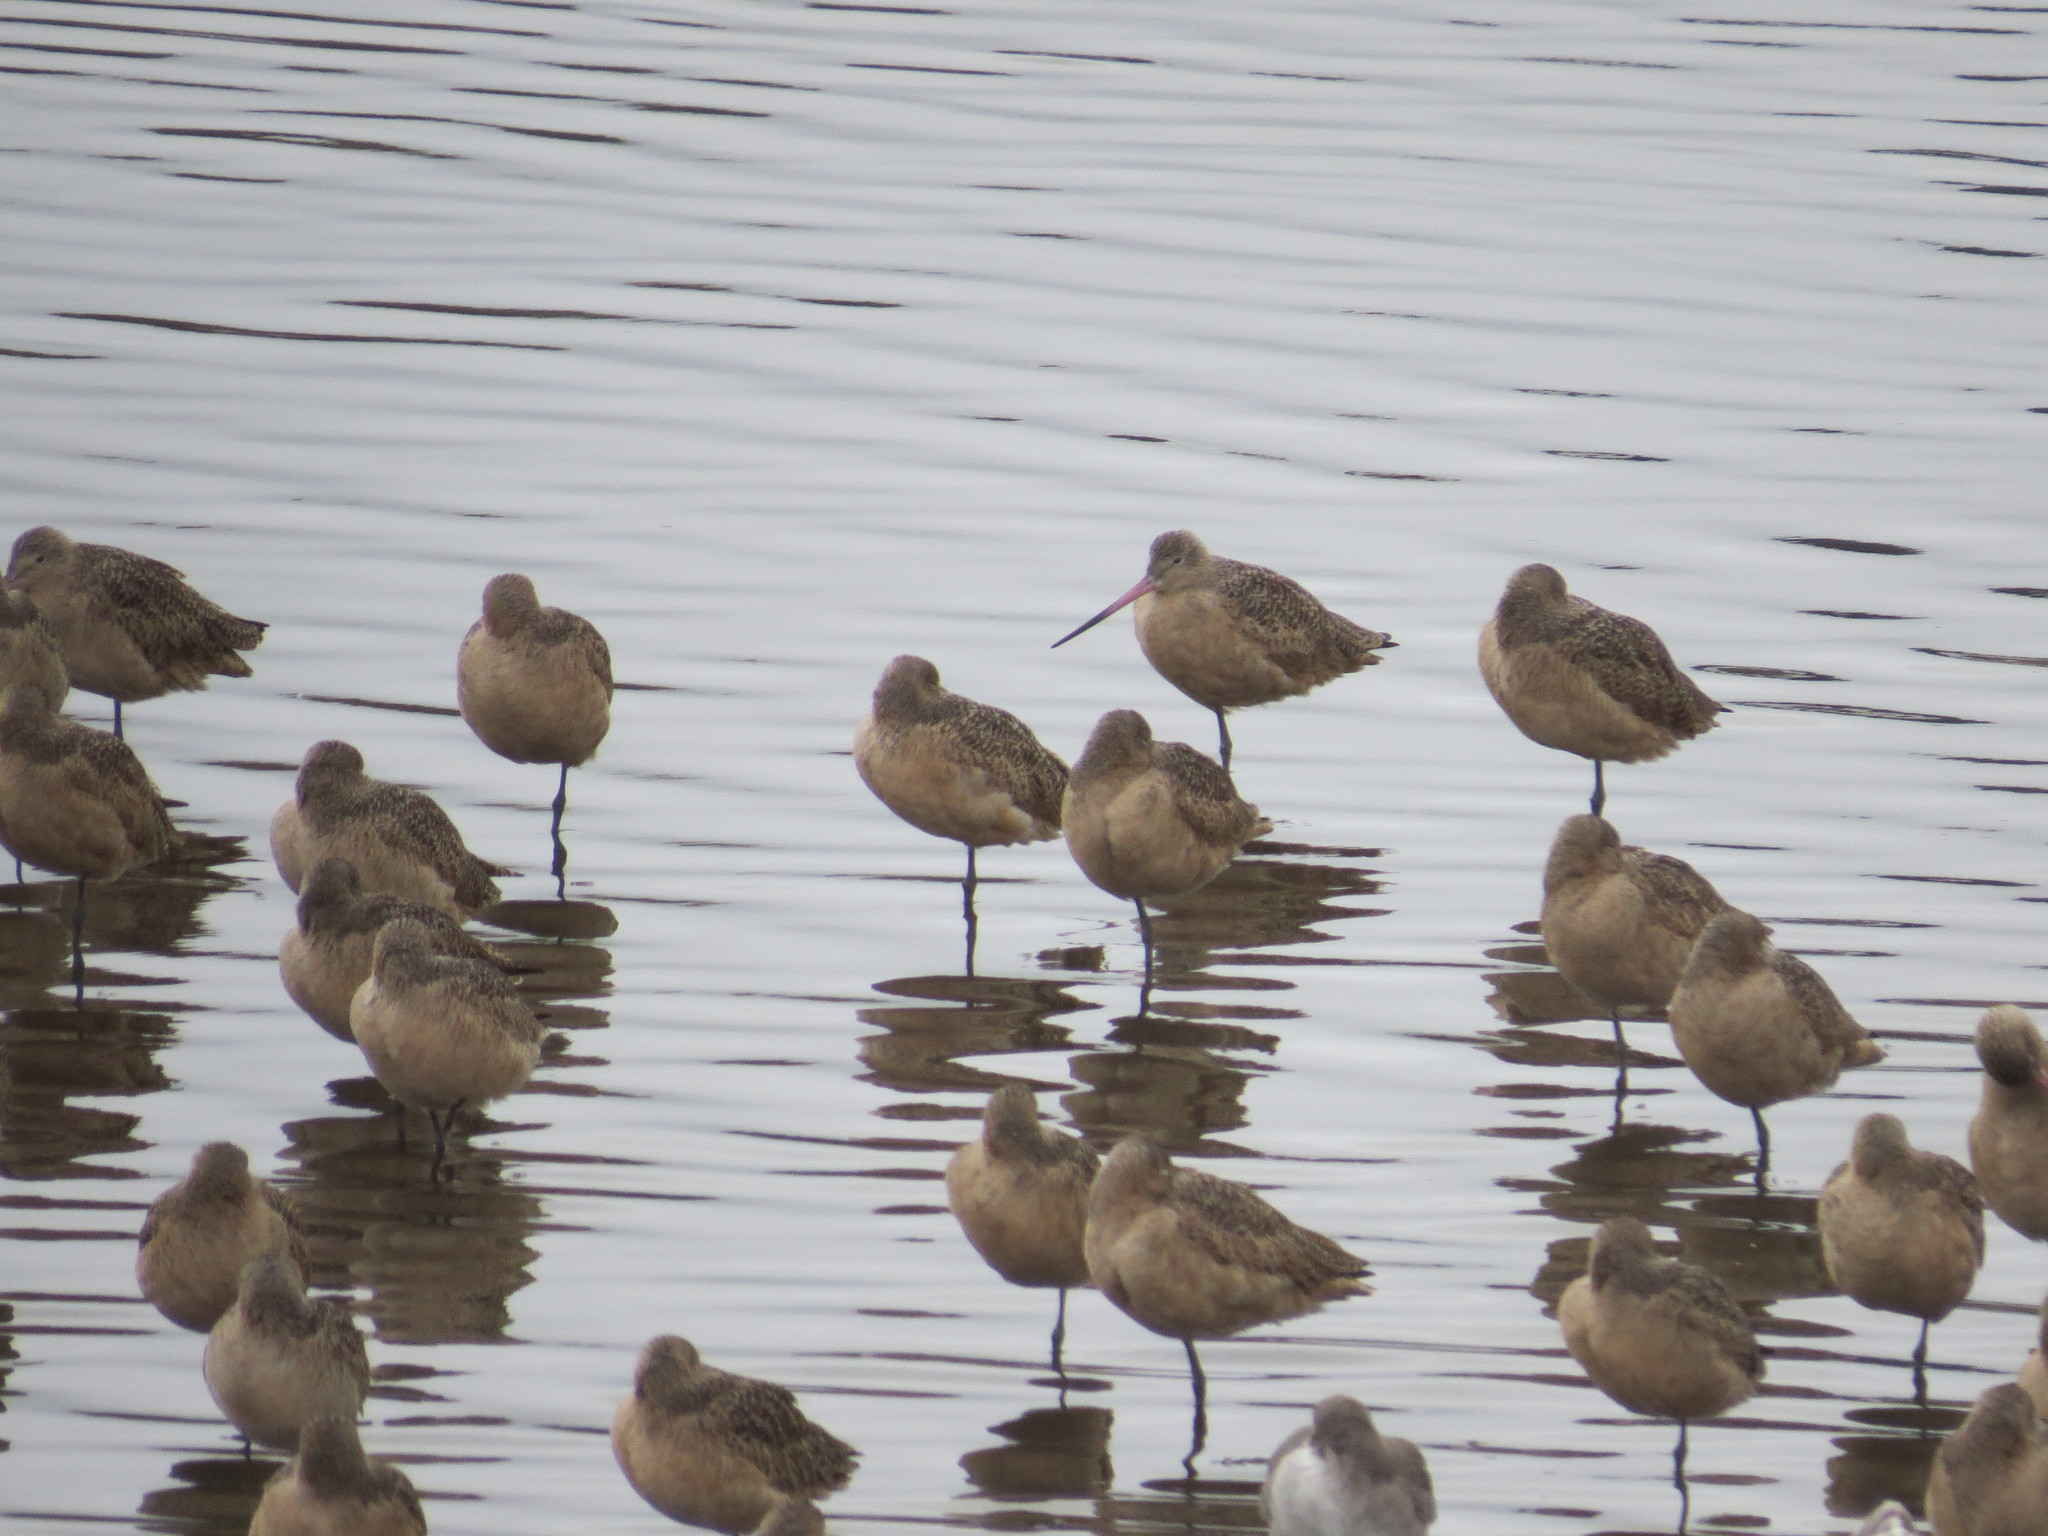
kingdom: Animalia
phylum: Chordata
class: Aves
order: Charadriiformes
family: Scolopacidae
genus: Limosa
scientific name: Limosa fedoa
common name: Marbled godwit
